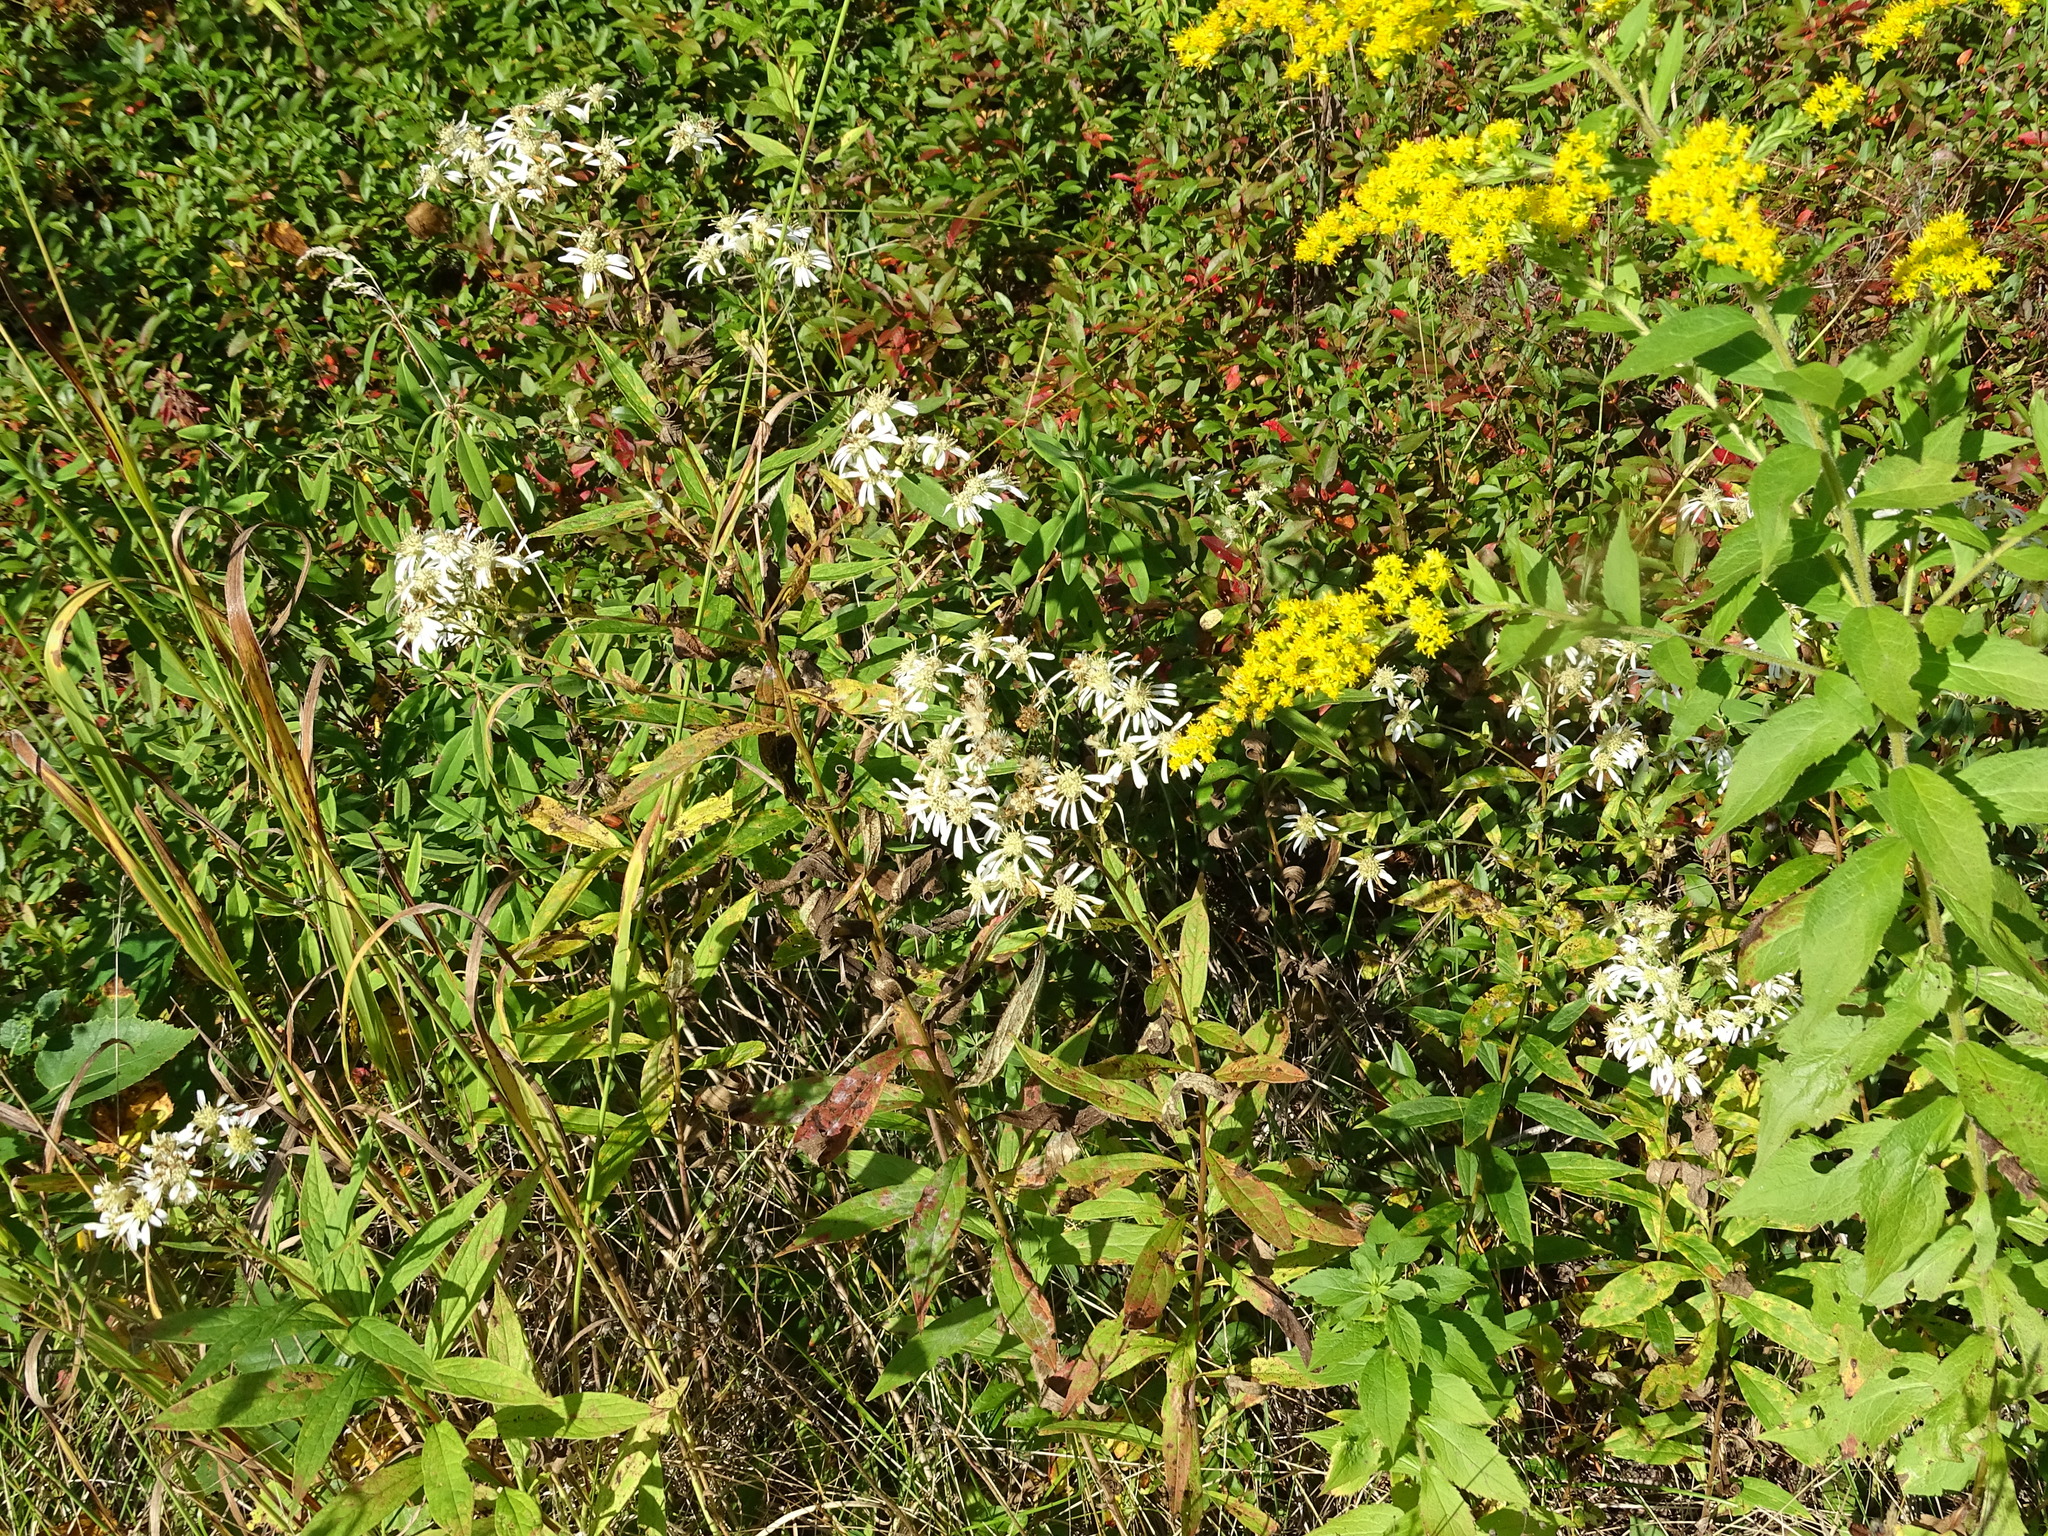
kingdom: Plantae
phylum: Tracheophyta
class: Magnoliopsida
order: Asterales
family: Asteraceae
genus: Doellingeria
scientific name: Doellingeria umbellata
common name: Flat-top white aster
